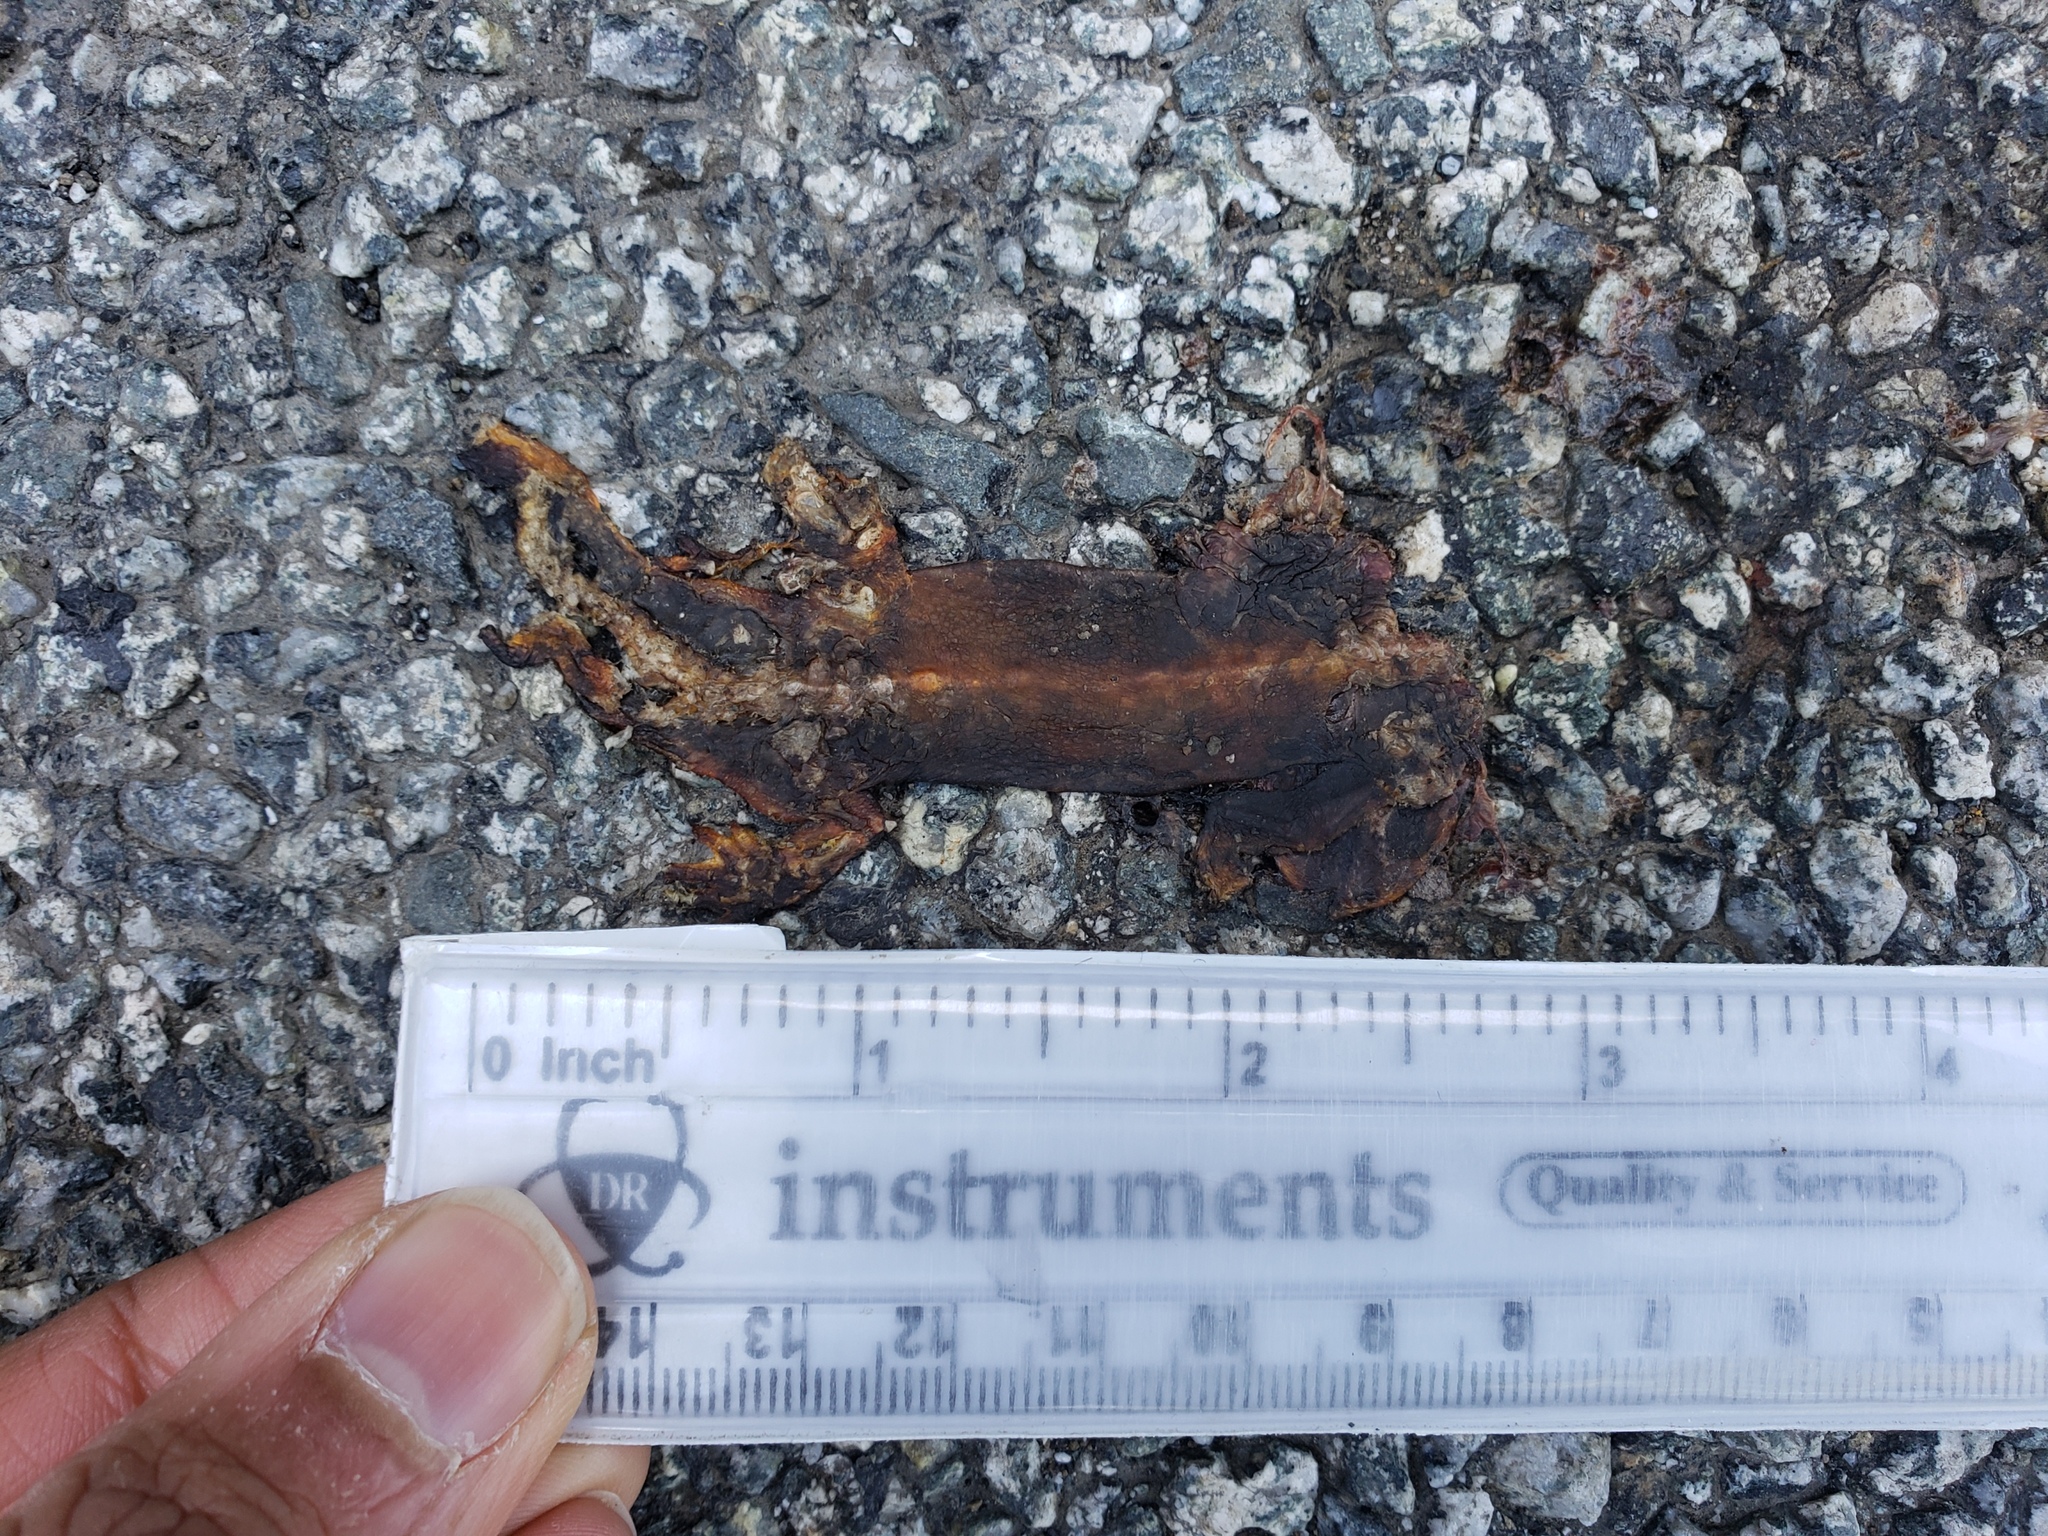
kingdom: Animalia
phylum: Chordata
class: Amphibia
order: Caudata
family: Salamandridae
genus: Taricha
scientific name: Taricha
